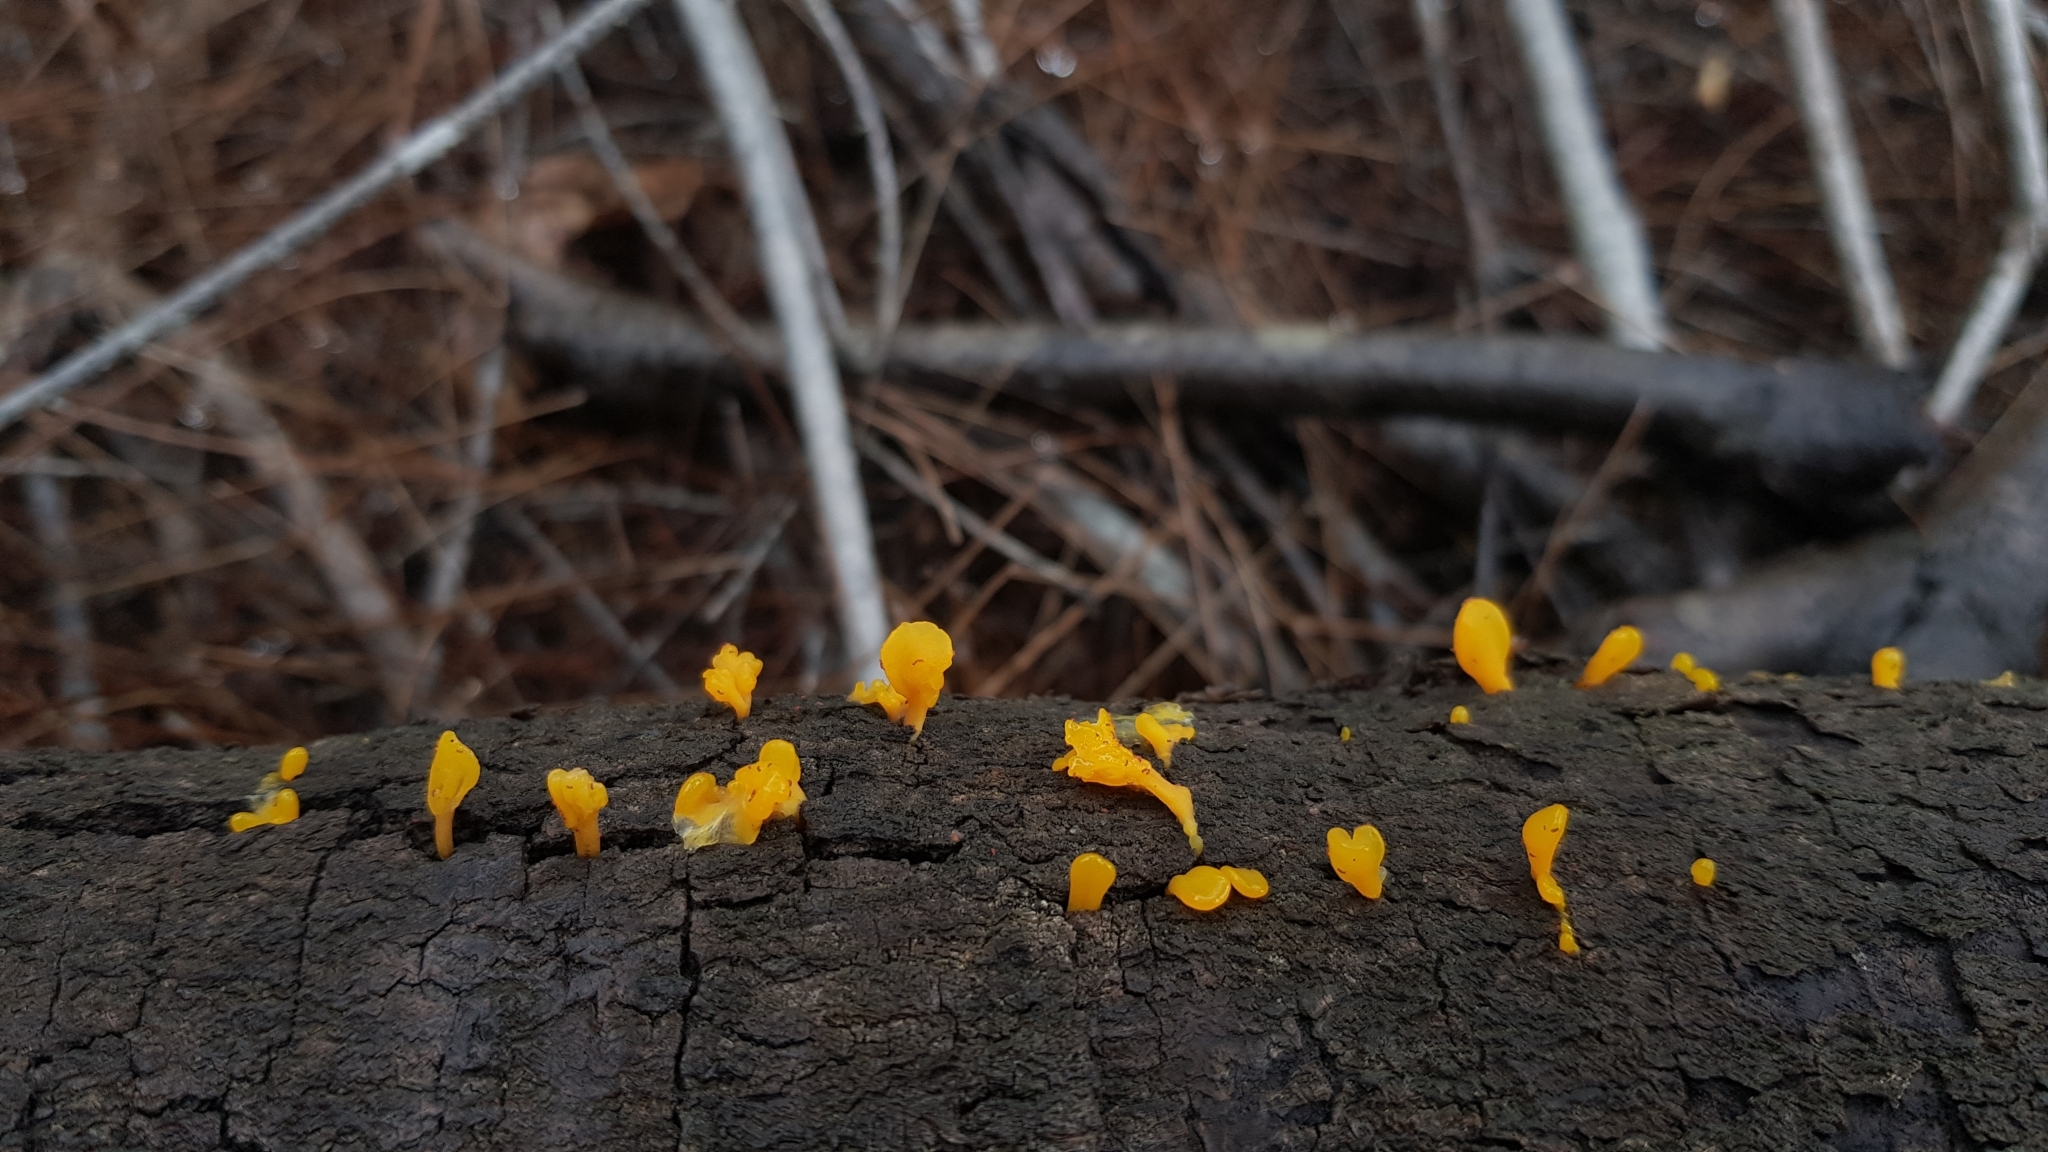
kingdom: Fungi
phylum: Basidiomycota
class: Dacrymycetes
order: Dacrymycetales
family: Dacrymycetaceae
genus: Dacrymyces
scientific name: Dacrymyces spathularius
